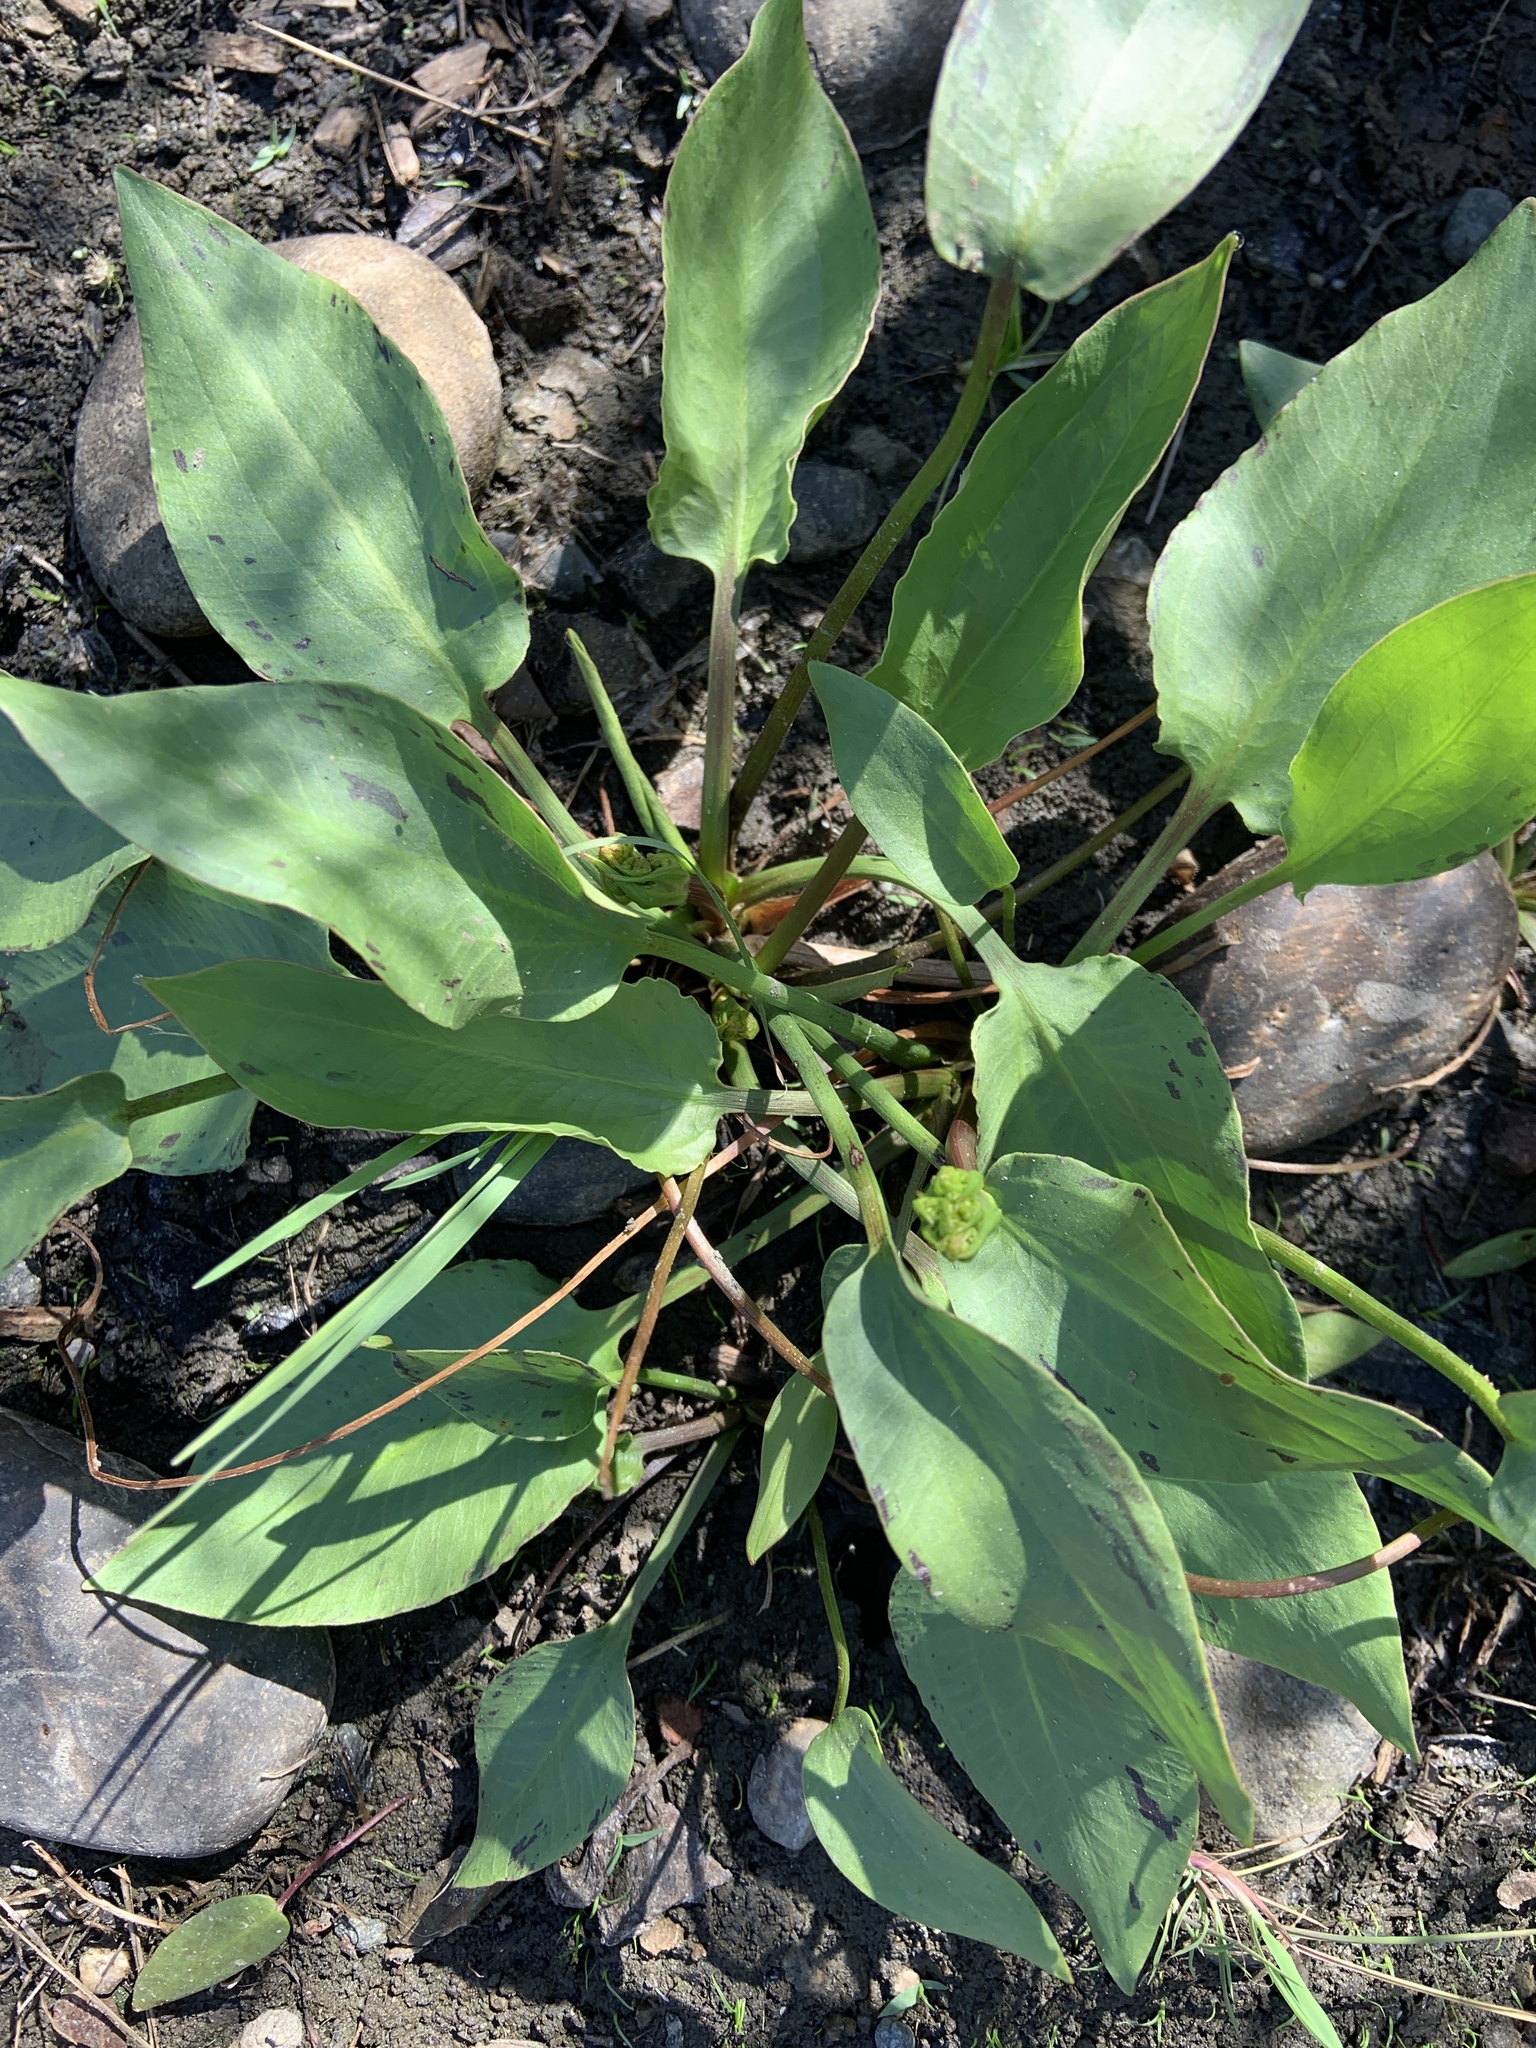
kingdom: Plantae
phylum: Tracheophyta
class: Liliopsida
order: Alismatales
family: Alismataceae
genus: Alisma
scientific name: Alisma triviale
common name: Northern water-plantain
